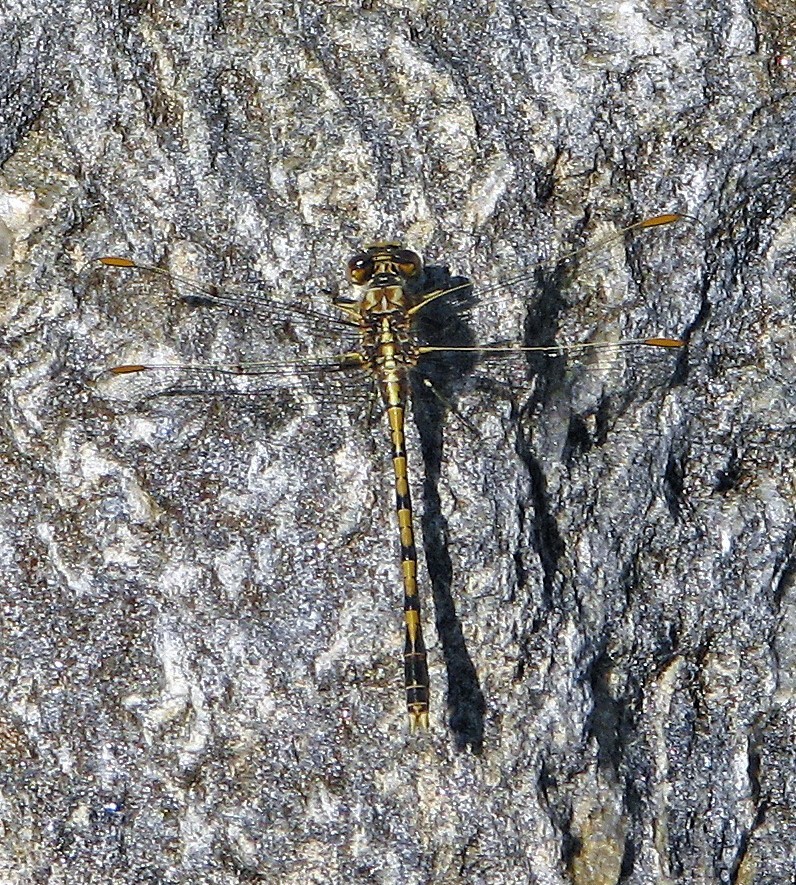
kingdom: Animalia
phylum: Arthropoda
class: Insecta
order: Odonata
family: Gomphidae
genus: Progomphus
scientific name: Progomphus joergenseni
